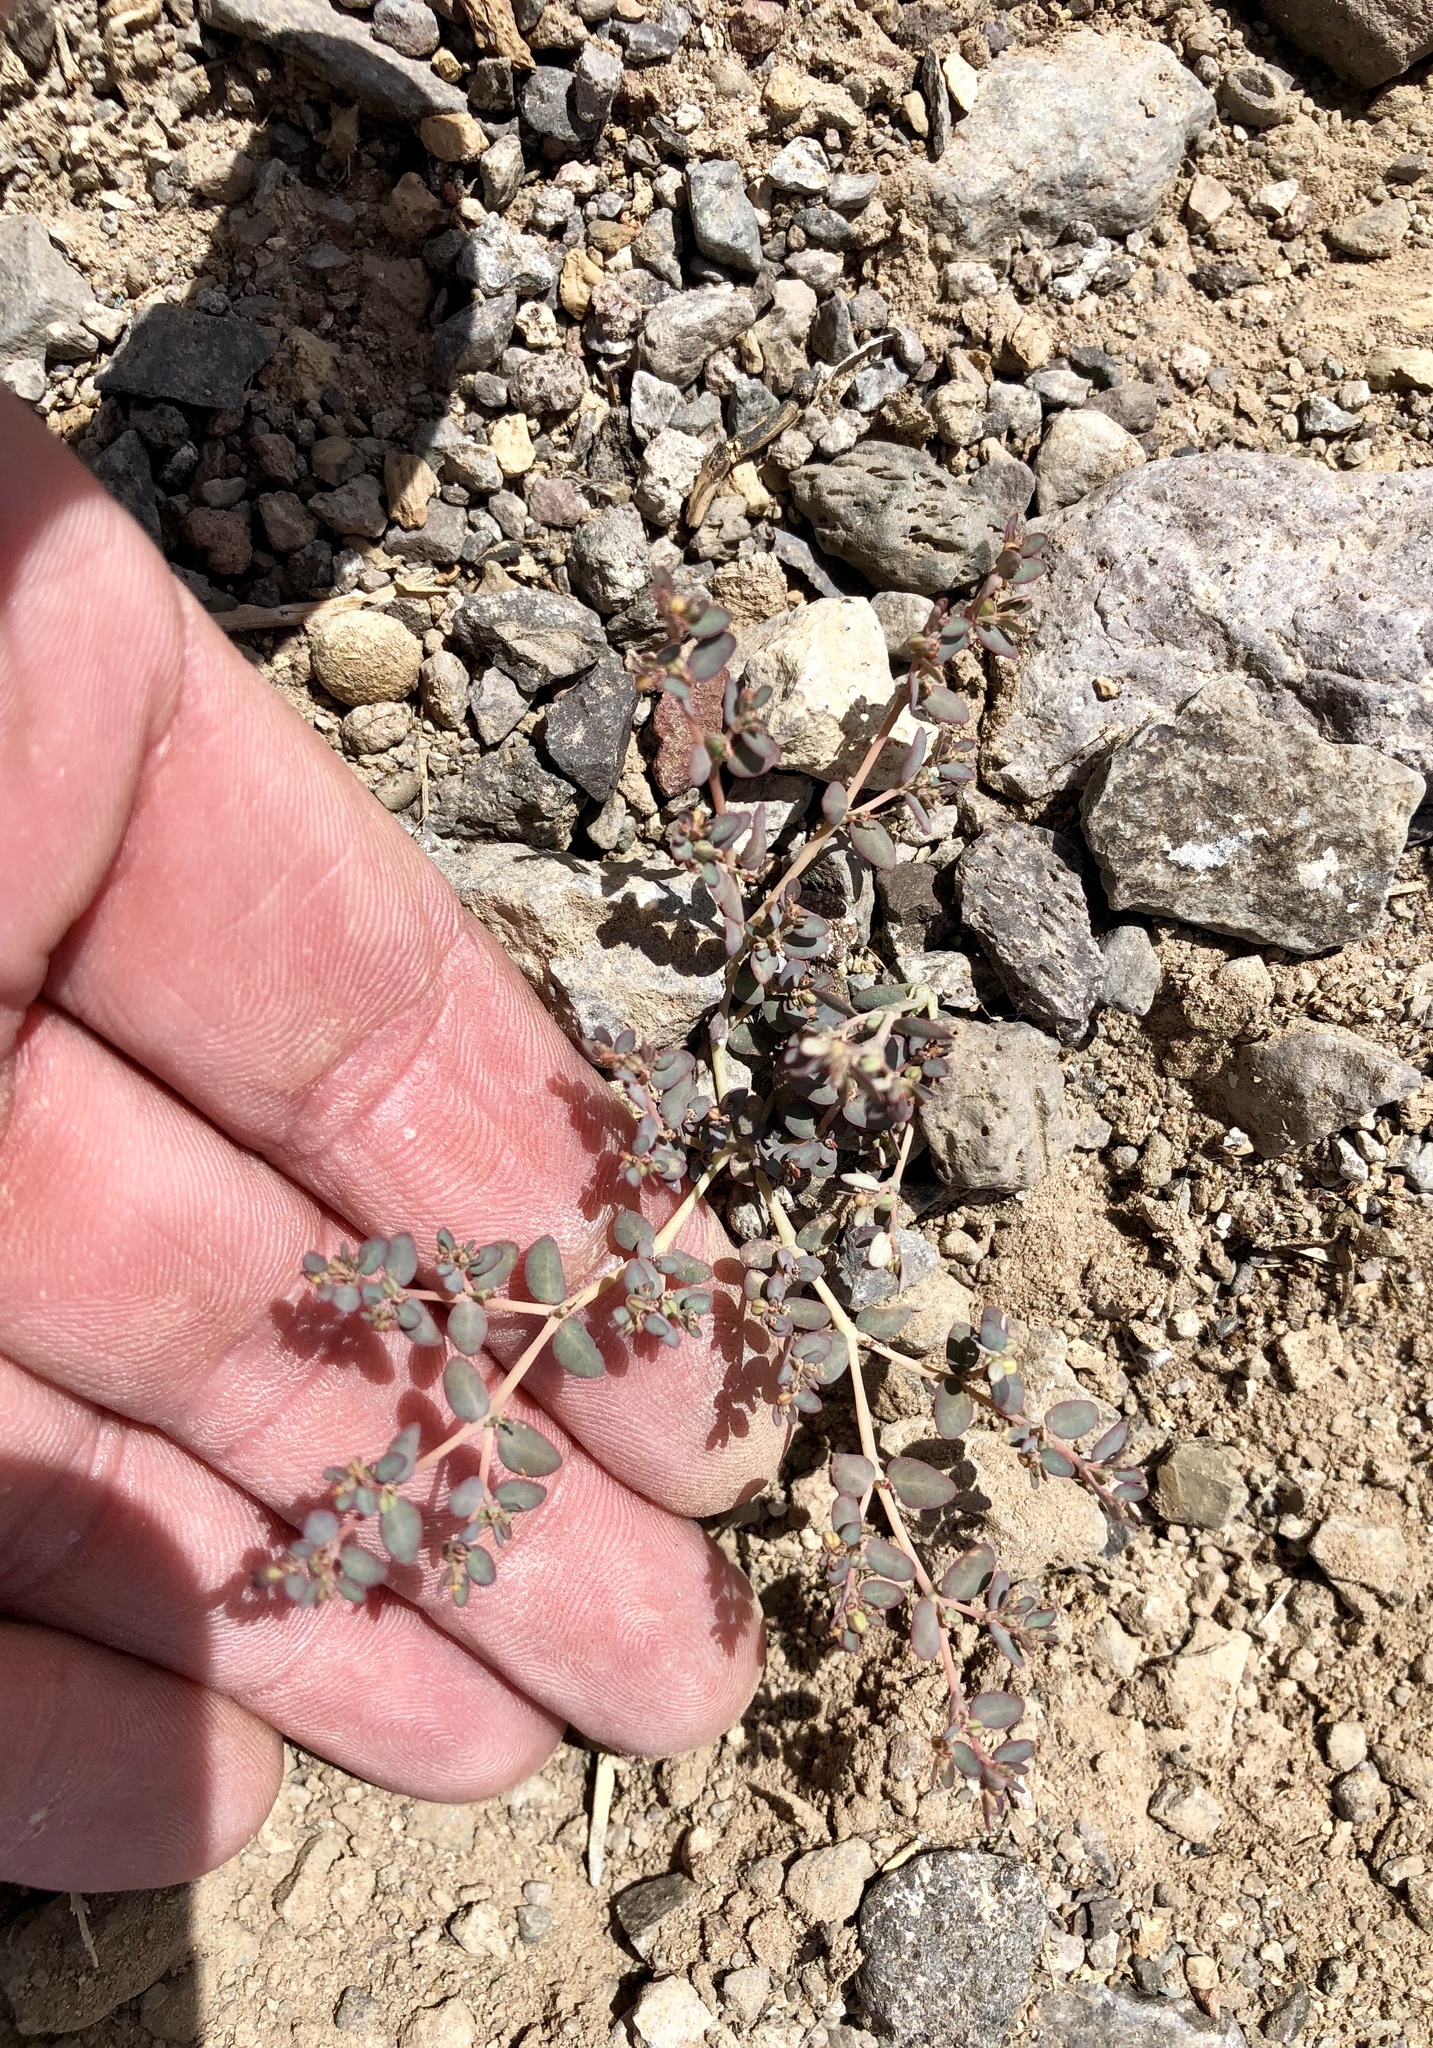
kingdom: Plantae
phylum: Tracheophyta
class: Magnoliopsida
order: Malpighiales
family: Euphorbiaceae
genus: Euphorbia
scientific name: Euphorbia micromera
